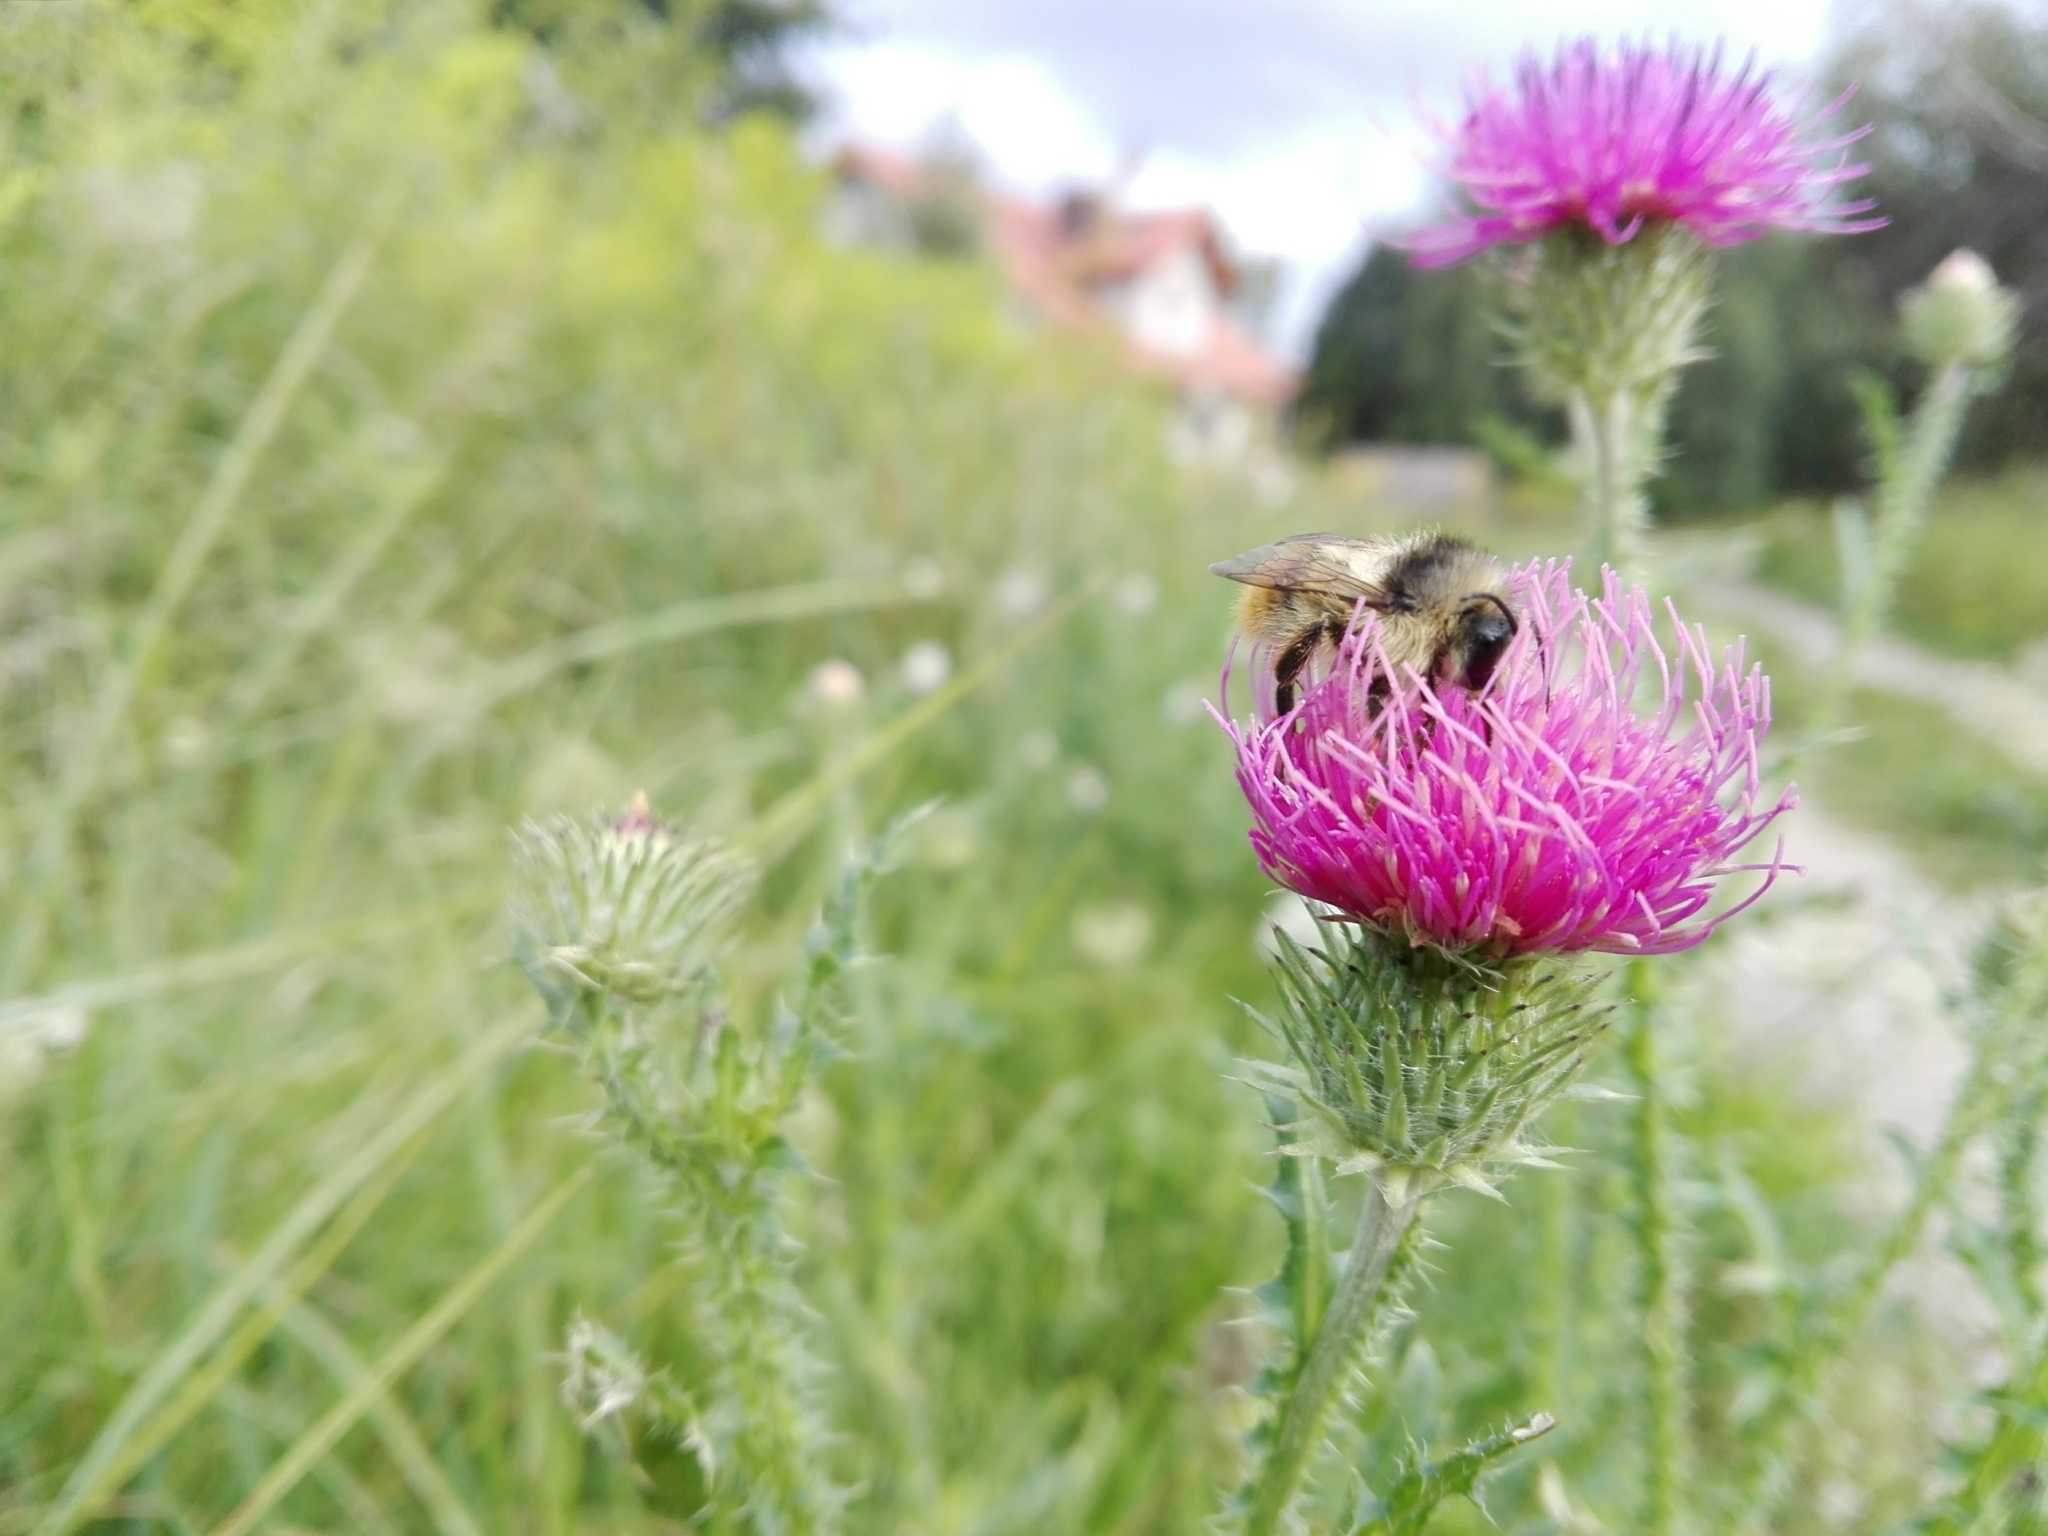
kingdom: Animalia
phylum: Arthropoda
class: Insecta
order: Hymenoptera
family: Apidae
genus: Bombus
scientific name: Bombus sylvarum
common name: Shrill carder bee
